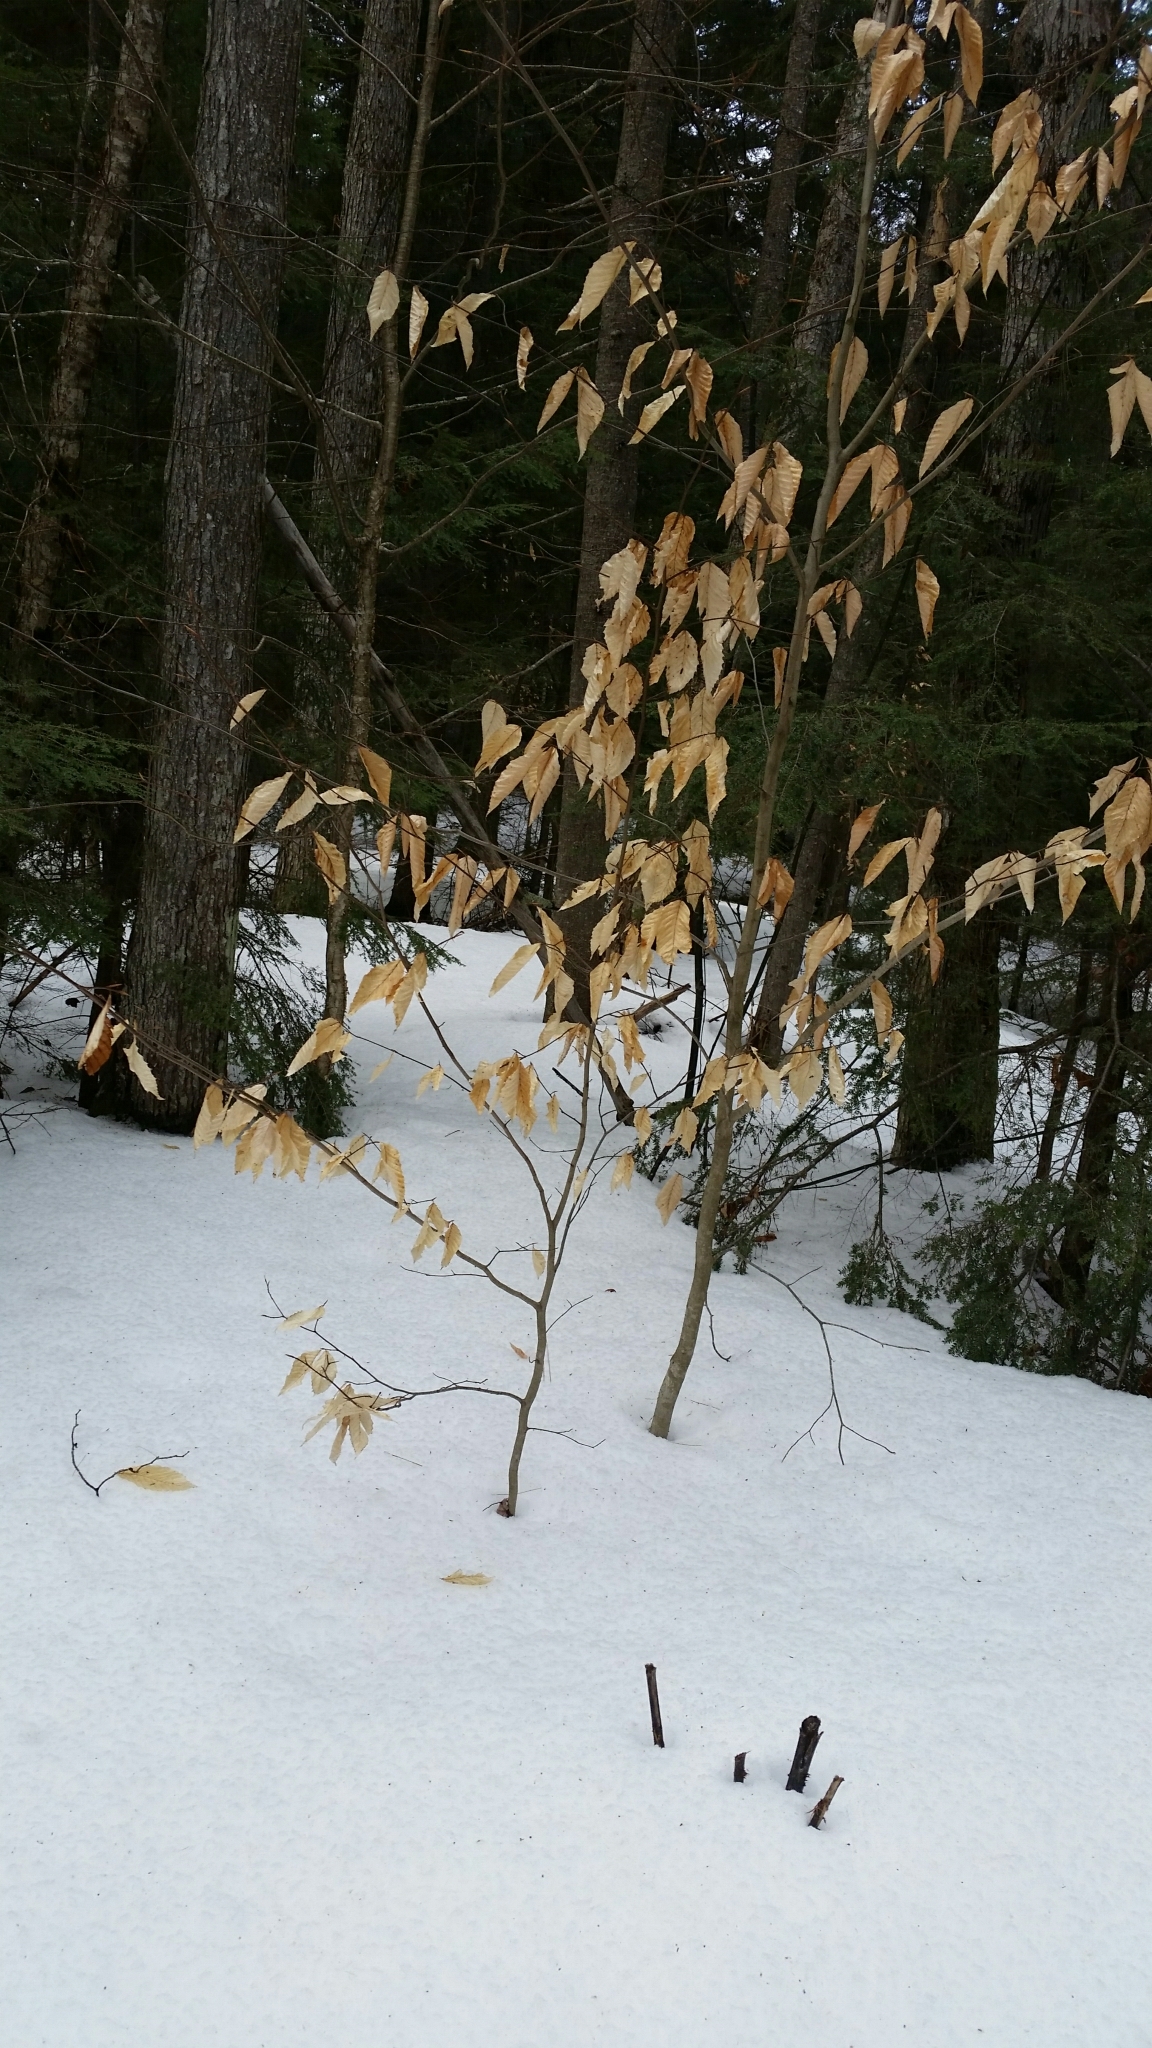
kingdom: Plantae
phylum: Tracheophyta
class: Magnoliopsida
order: Fagales
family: Fagaceae
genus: Fagus
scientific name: Fagus grandifolia
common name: American beech
